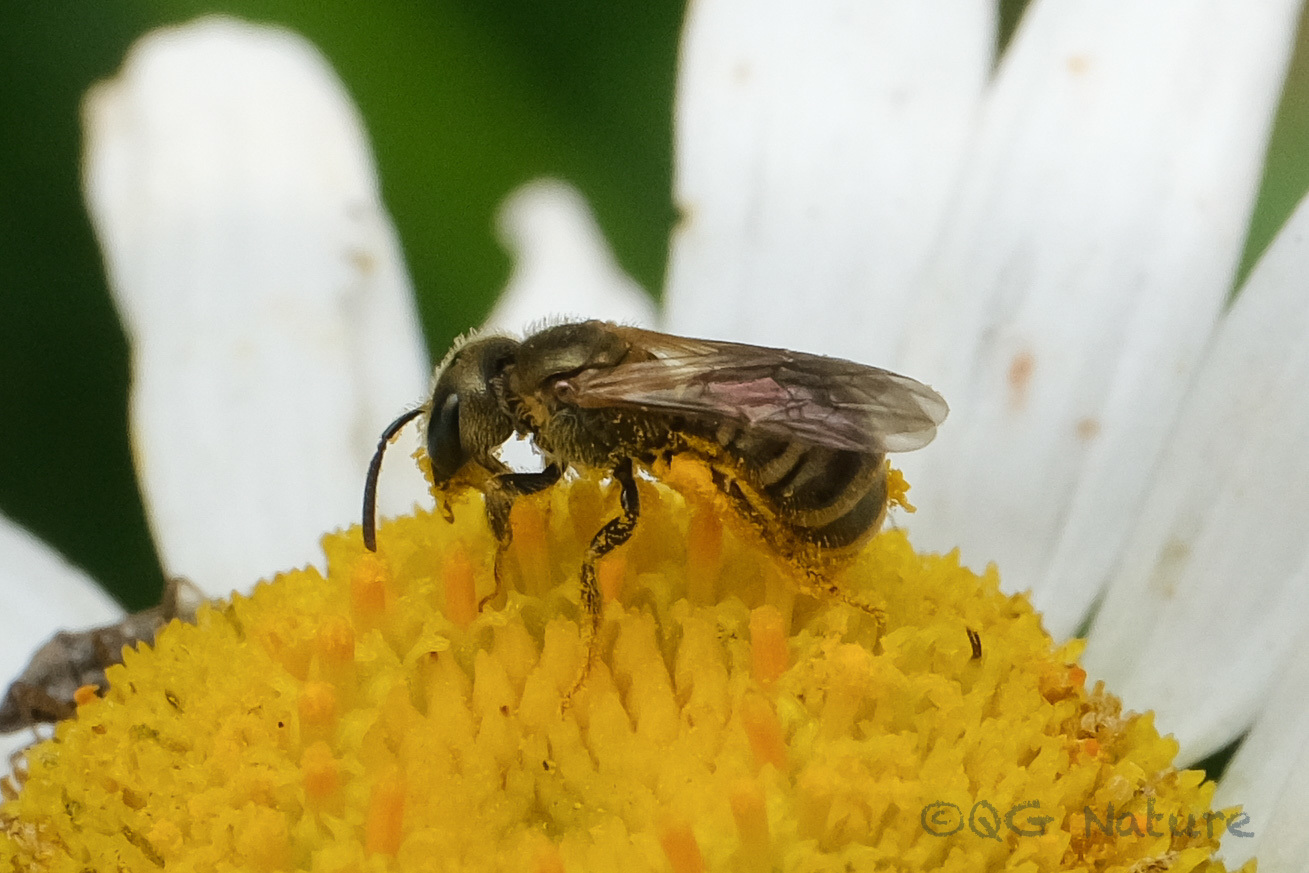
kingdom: Animalia
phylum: Arthropoda
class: Insecta
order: Hymenoptera
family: Halictidae
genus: Halictus
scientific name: Halictus aerarius
